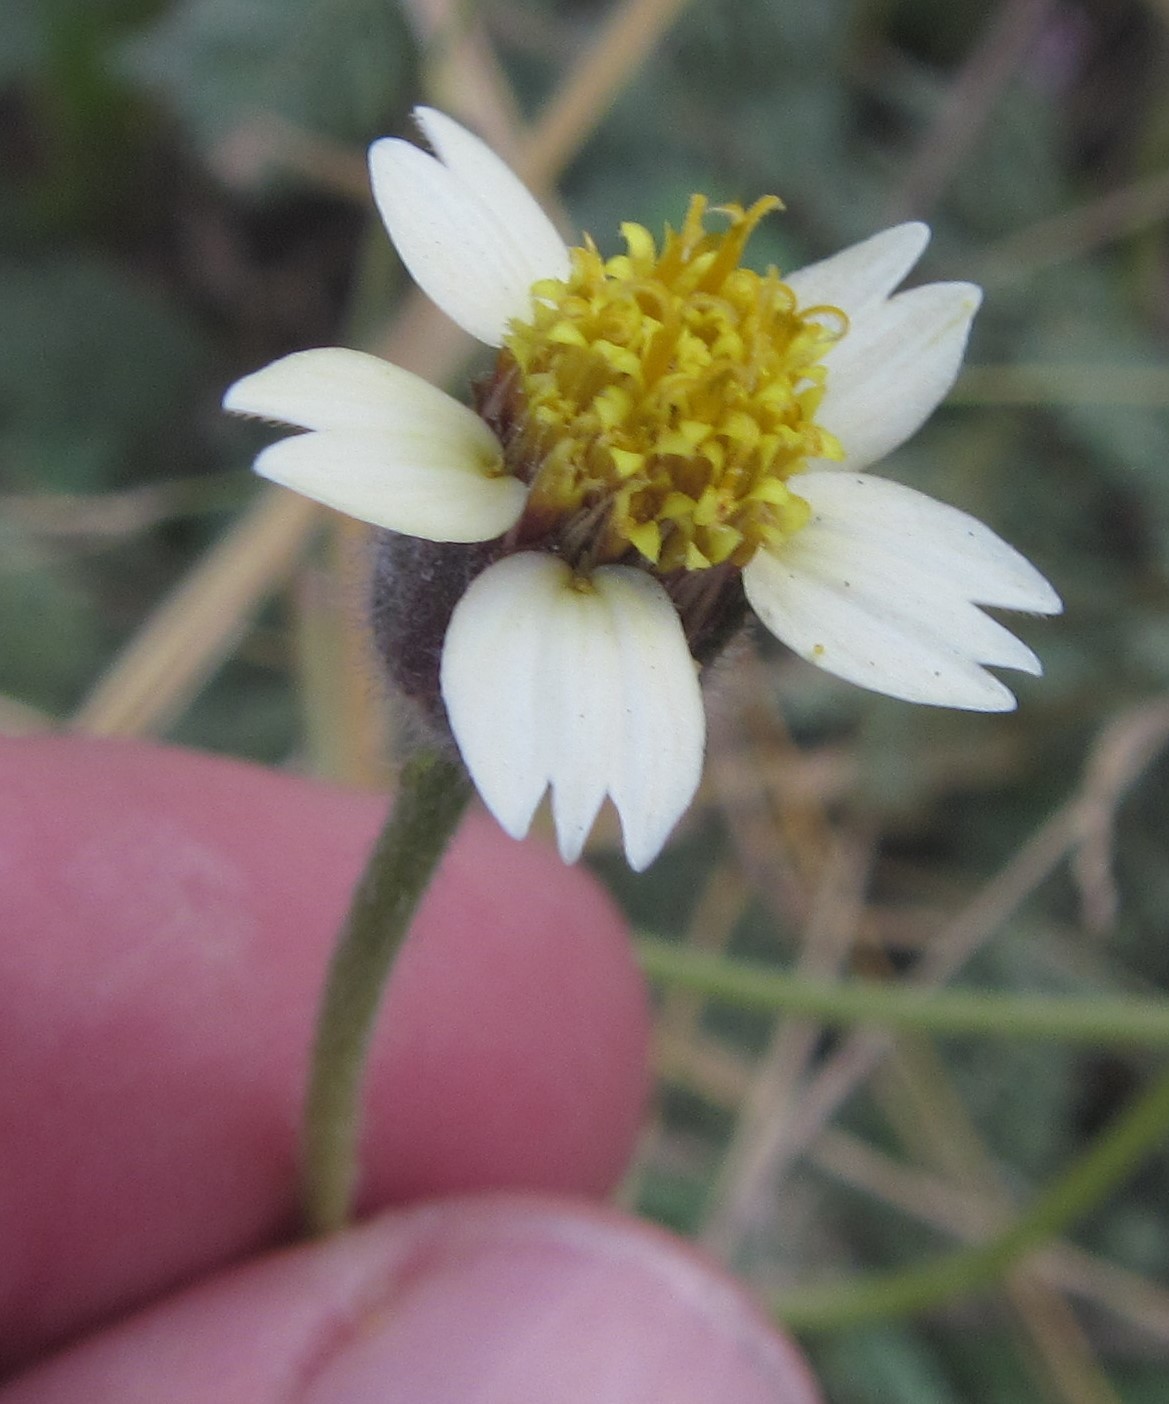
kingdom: Plantae
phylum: Tracheophyta
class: Magnoliopsida
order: Asterales
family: Asteraceae
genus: Tridax
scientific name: Tridax procumbens
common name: Coatbuttons
